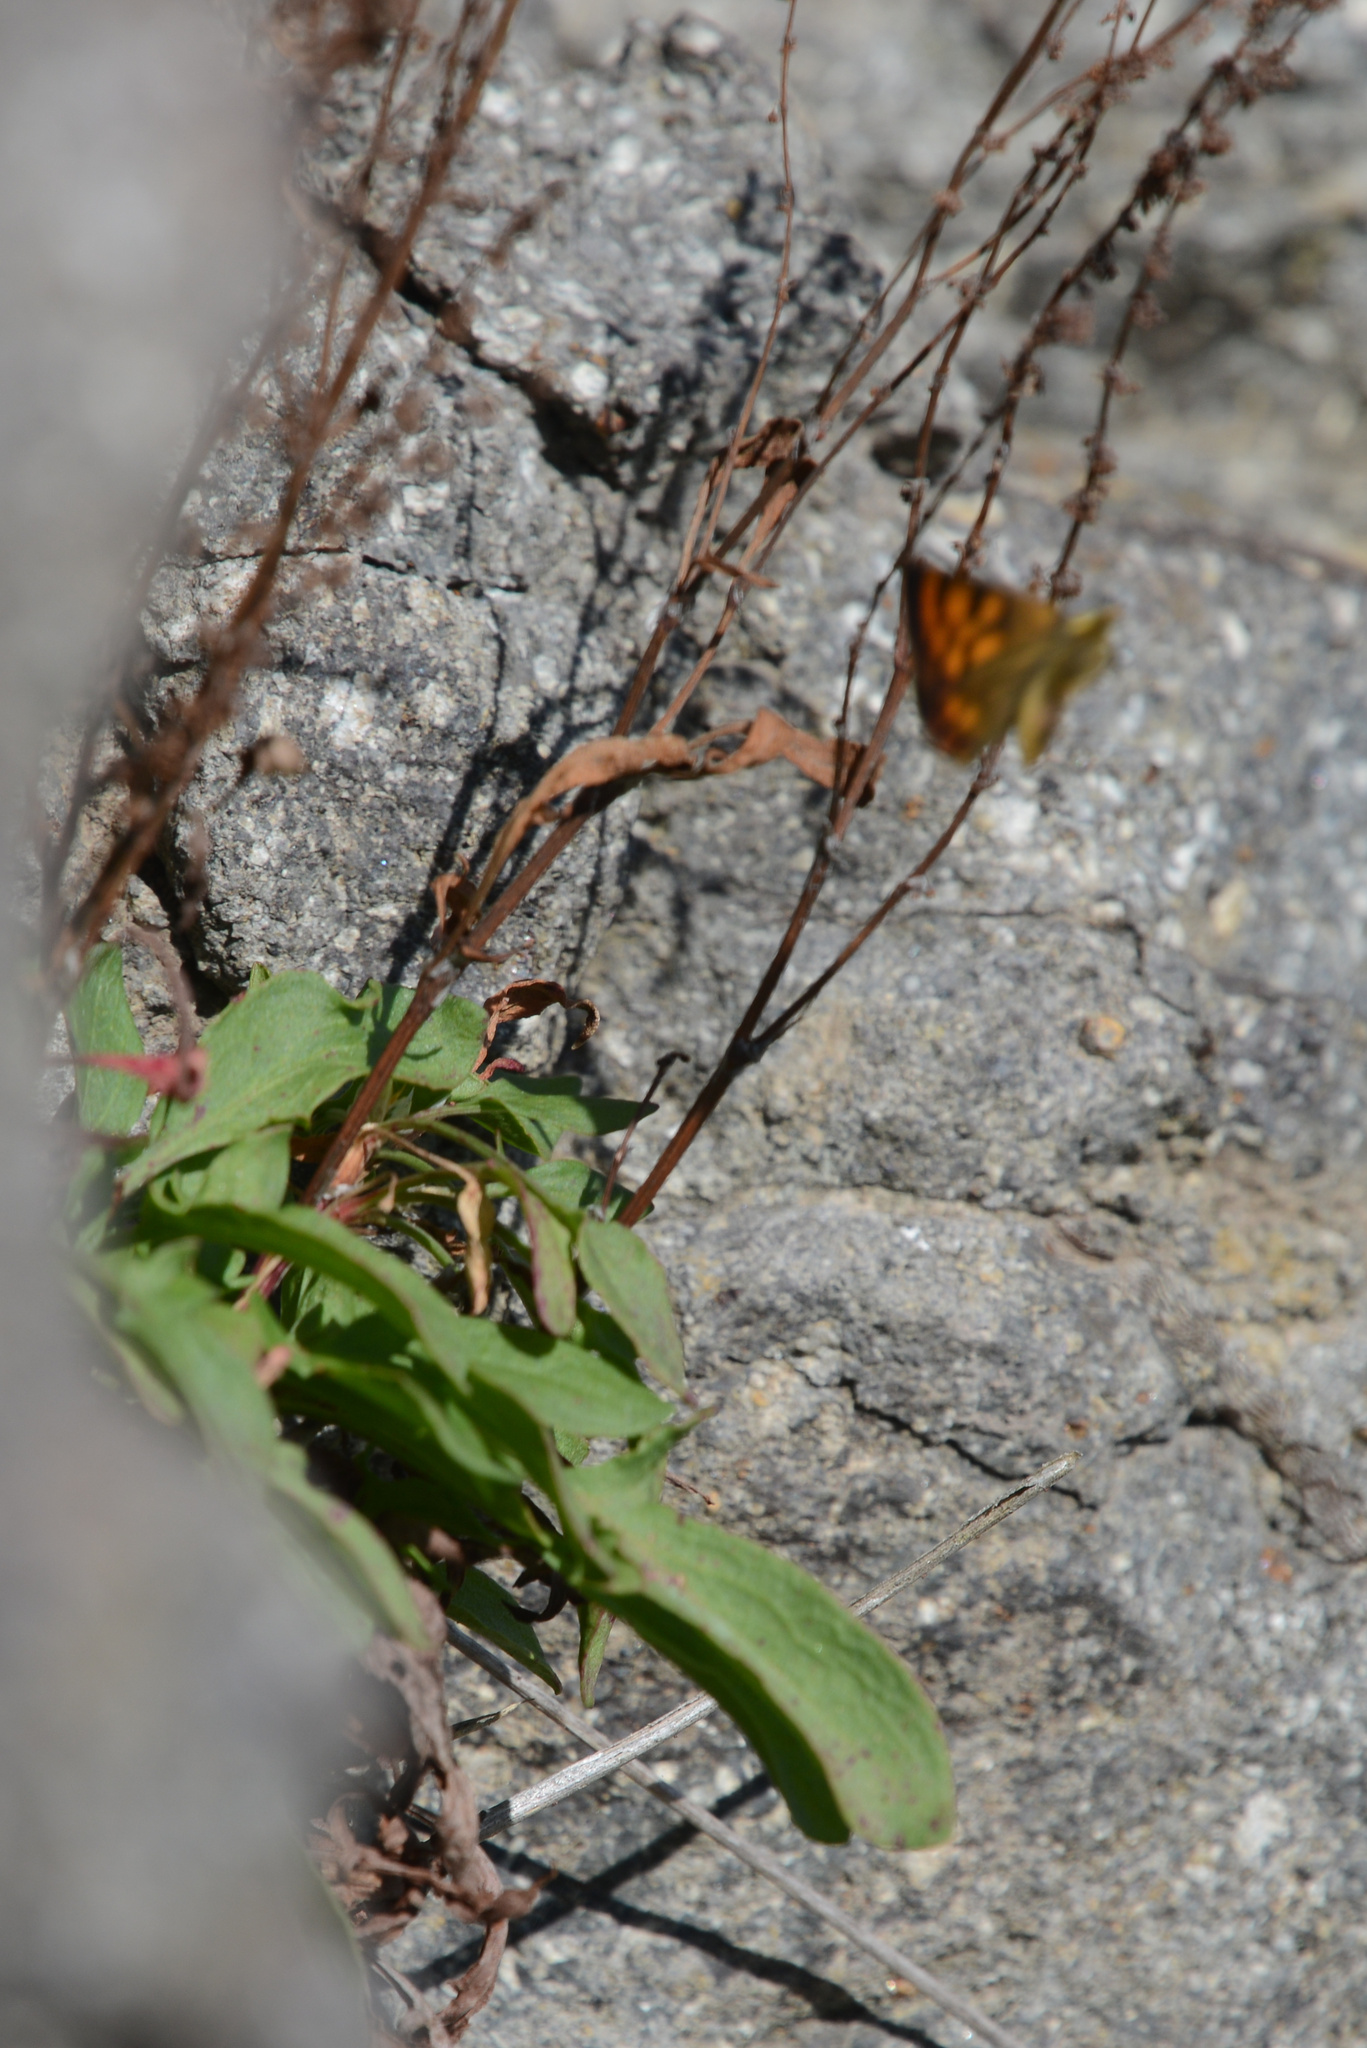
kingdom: Plantae
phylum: Tracheophyta
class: Magnoliopsida
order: Caryophyllales
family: Polygonaceae
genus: Rumex
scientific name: Rumex acetosella
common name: Common sheep sorrel
